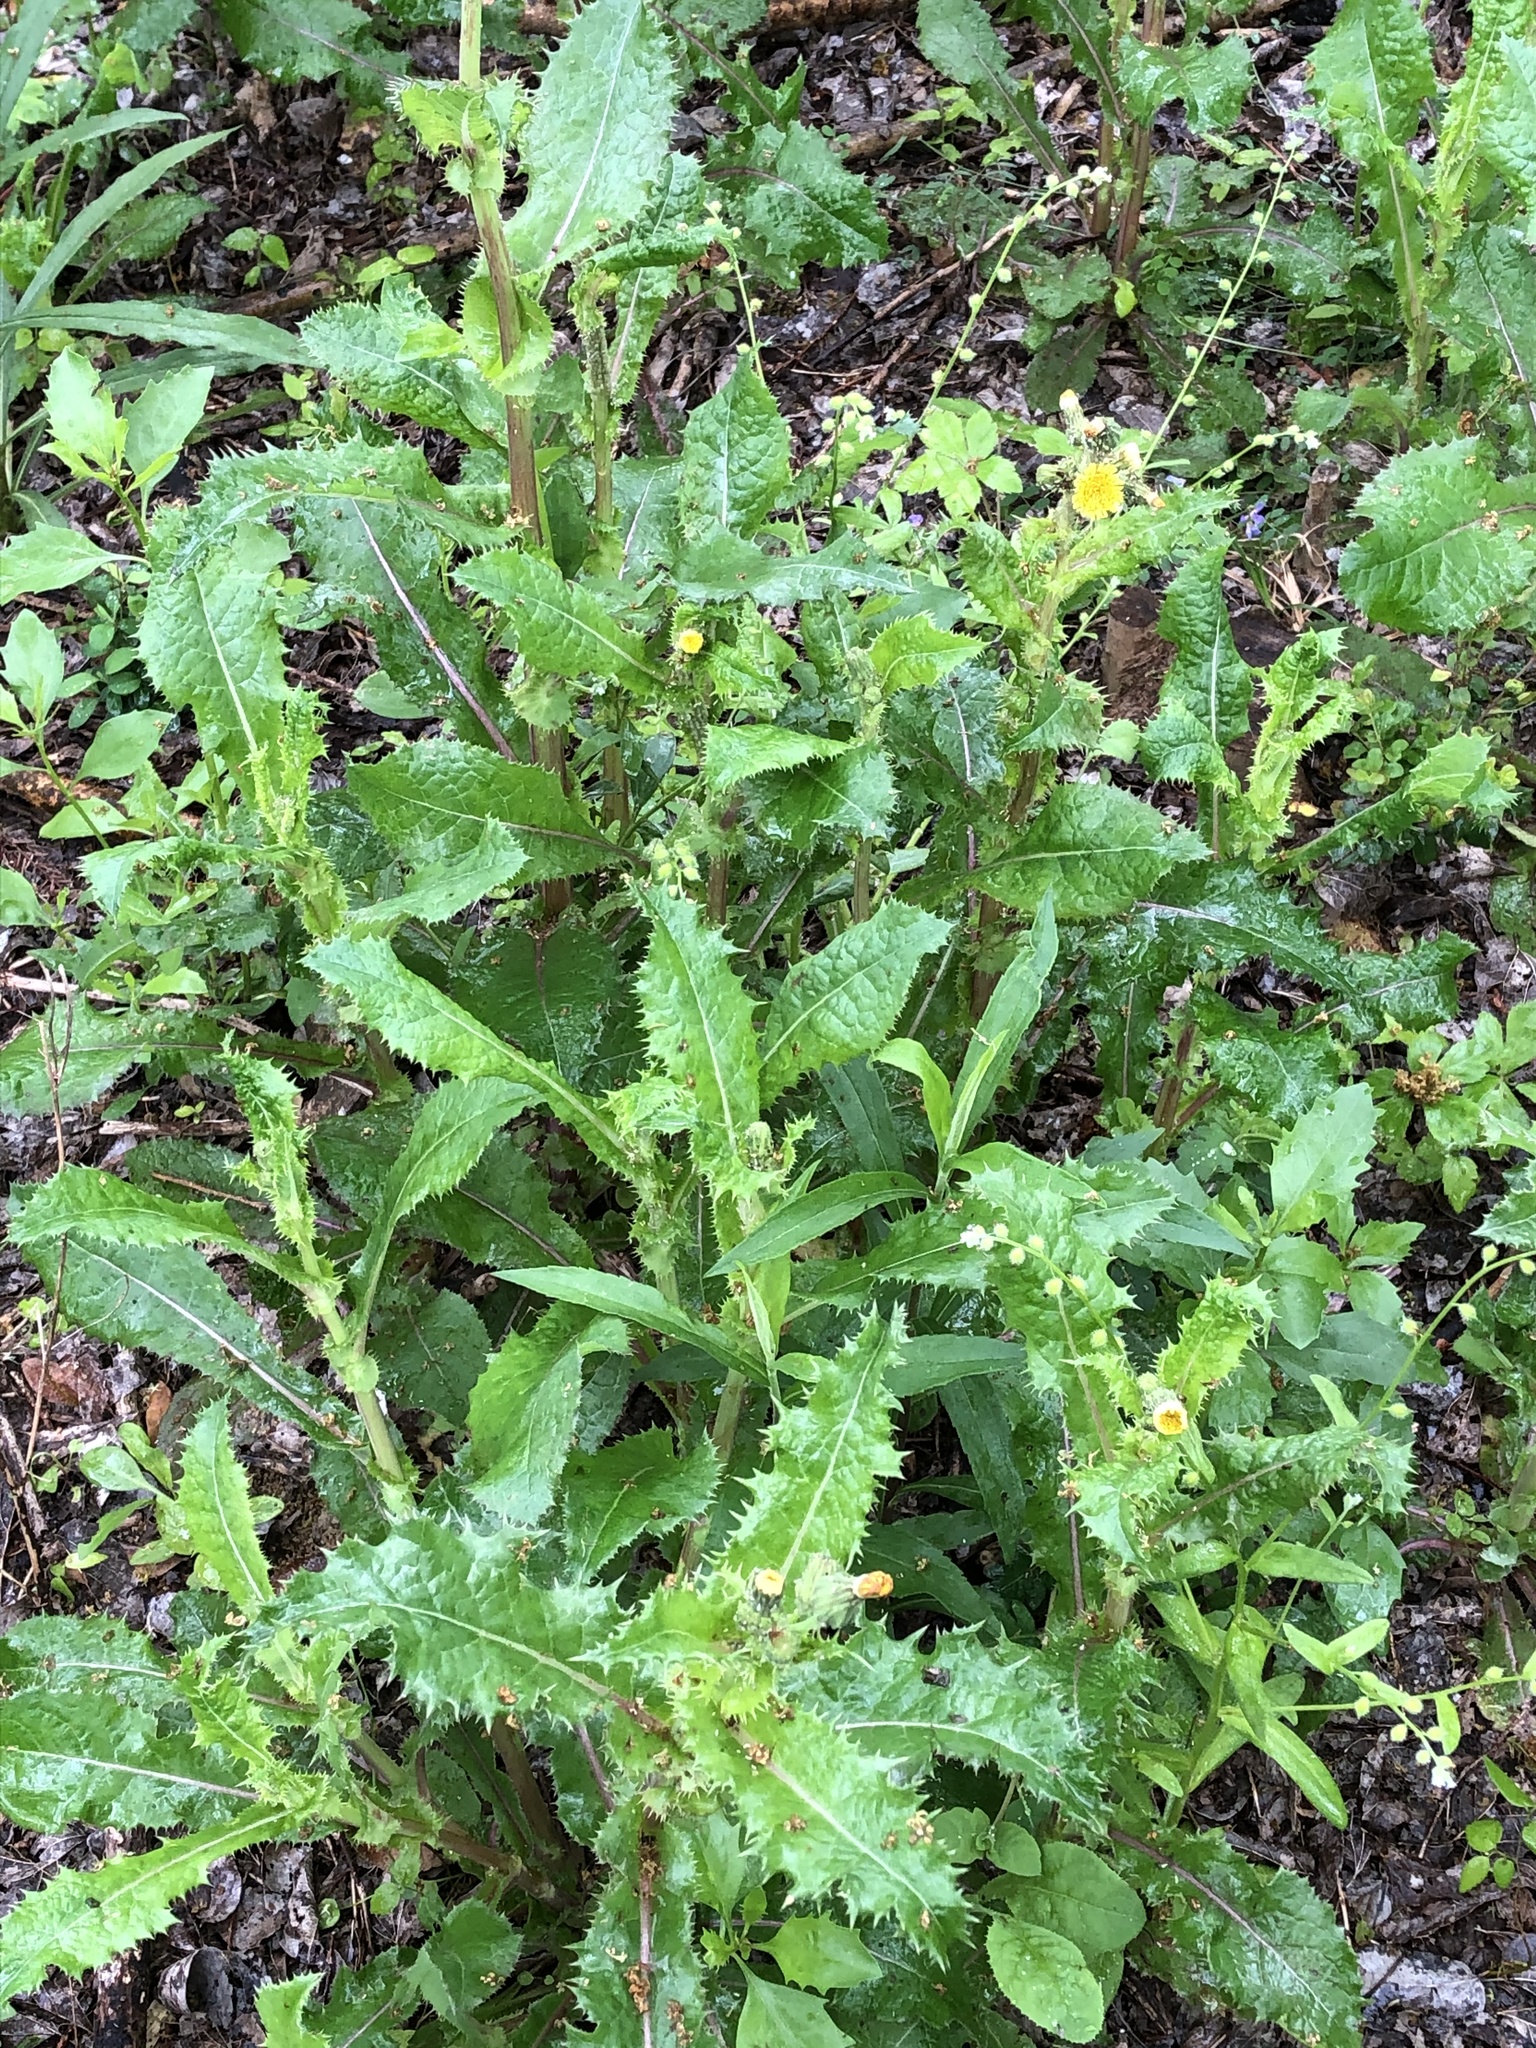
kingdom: Plantae
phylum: Tracheophyta
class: Magnoliopsida
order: Asterales
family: Asteraceae
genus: Sonchus
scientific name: Sonchus asper
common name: Prickly sow-thistle
